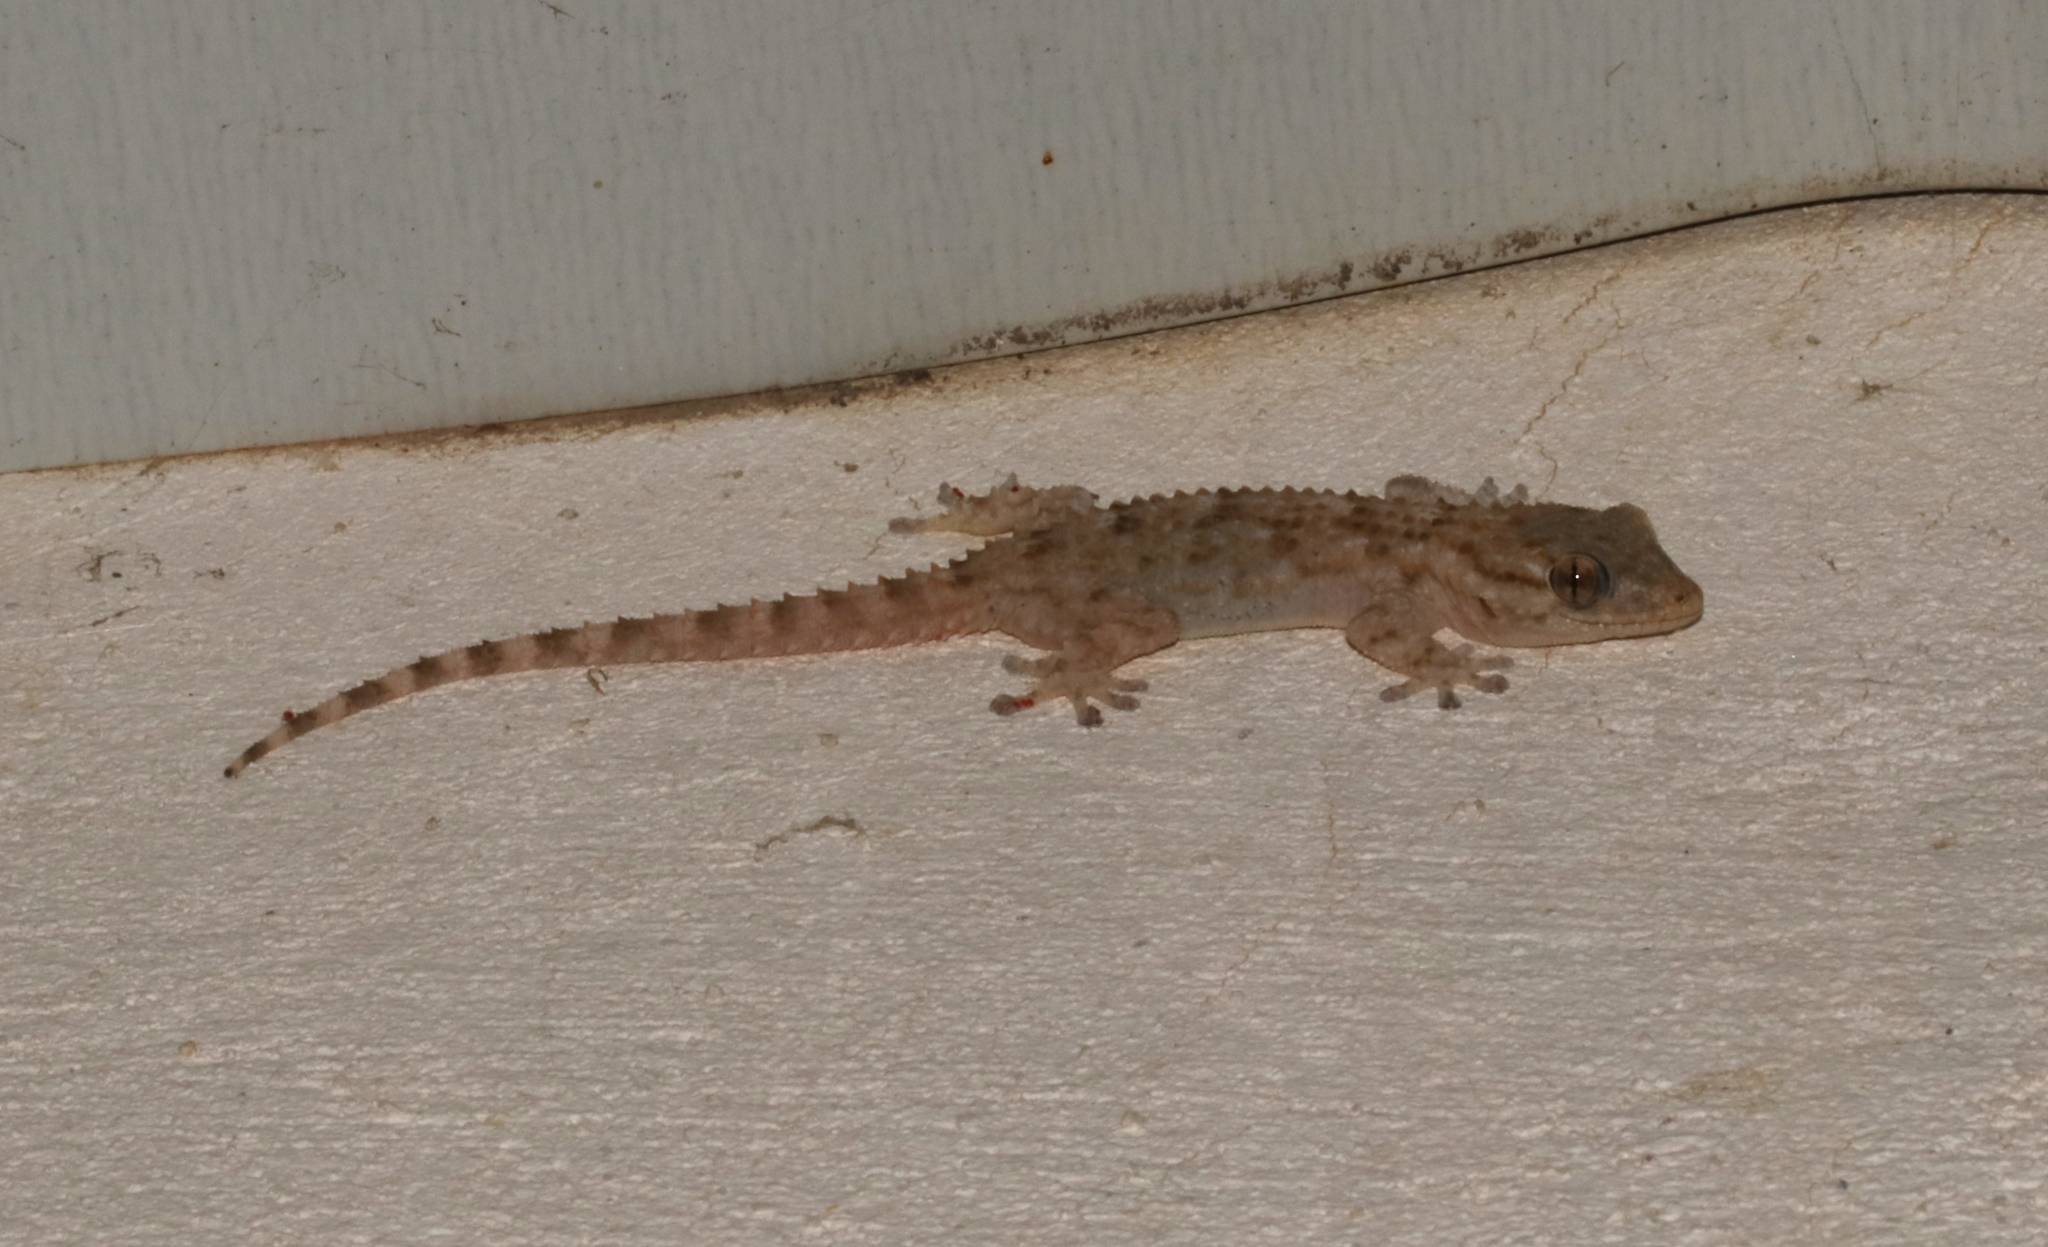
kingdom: Animalia
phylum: Chordata
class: Squamata
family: Phyllodactylidae
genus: Tarentola
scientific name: Tarentola mauritanica
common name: Moorish gecko
